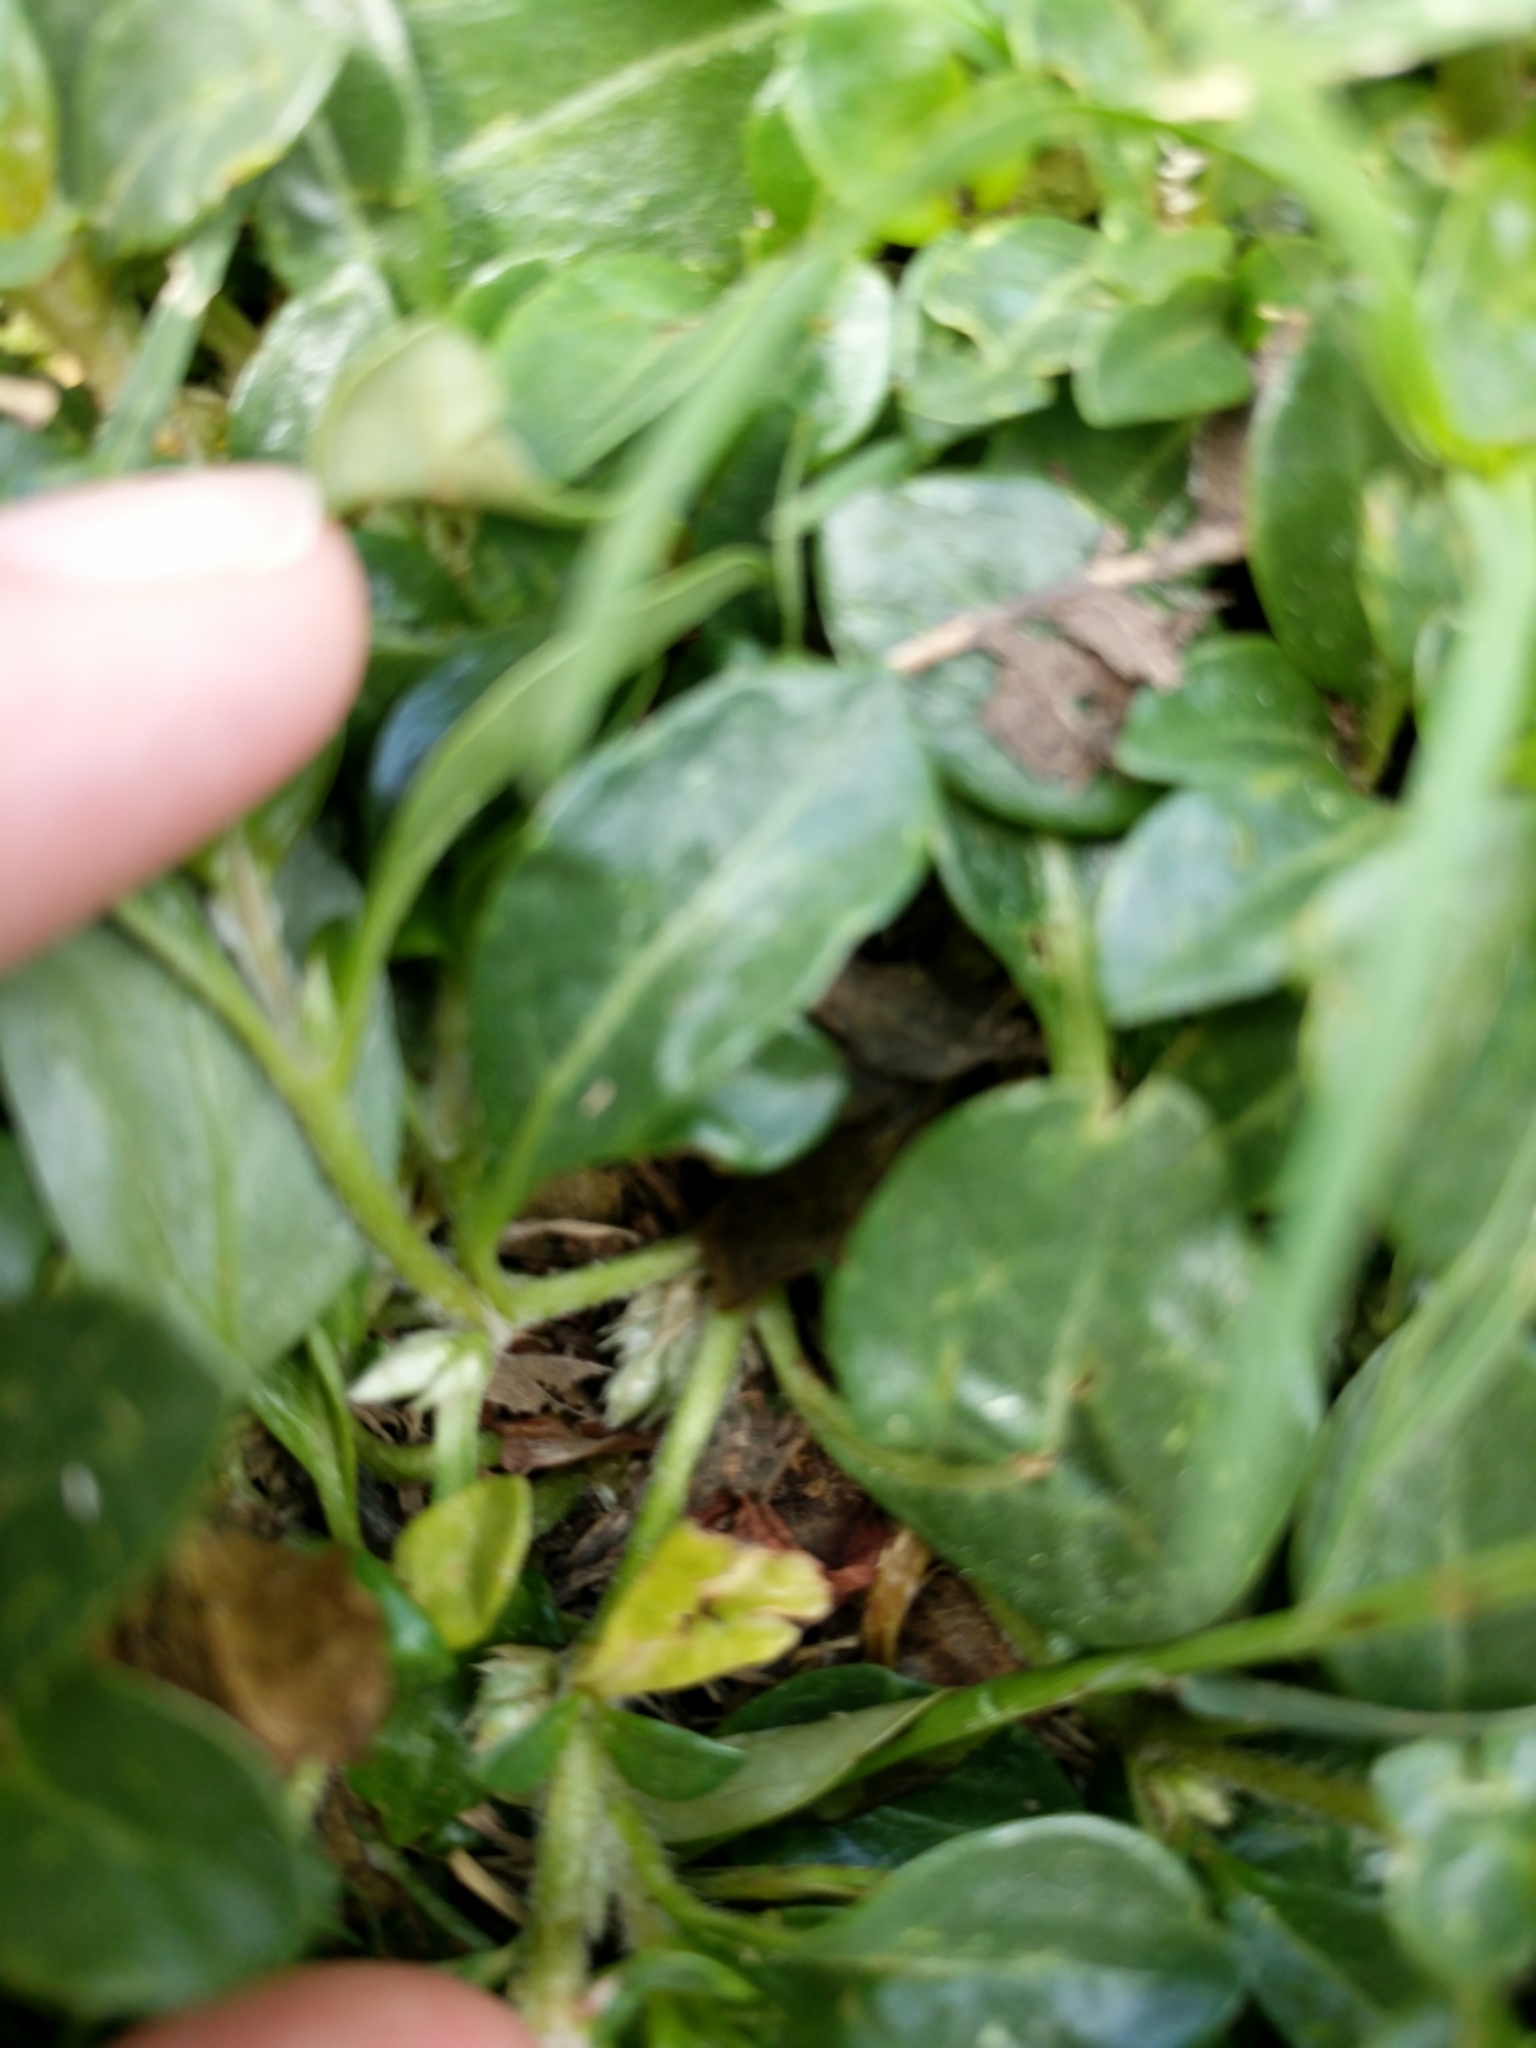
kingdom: Plantae
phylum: Tracheophyta
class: Magnoliopsida
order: Caryophyllales
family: Amaranthaceae
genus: Alternanthera
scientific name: Alternanthera caracasana
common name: Washerwoman
